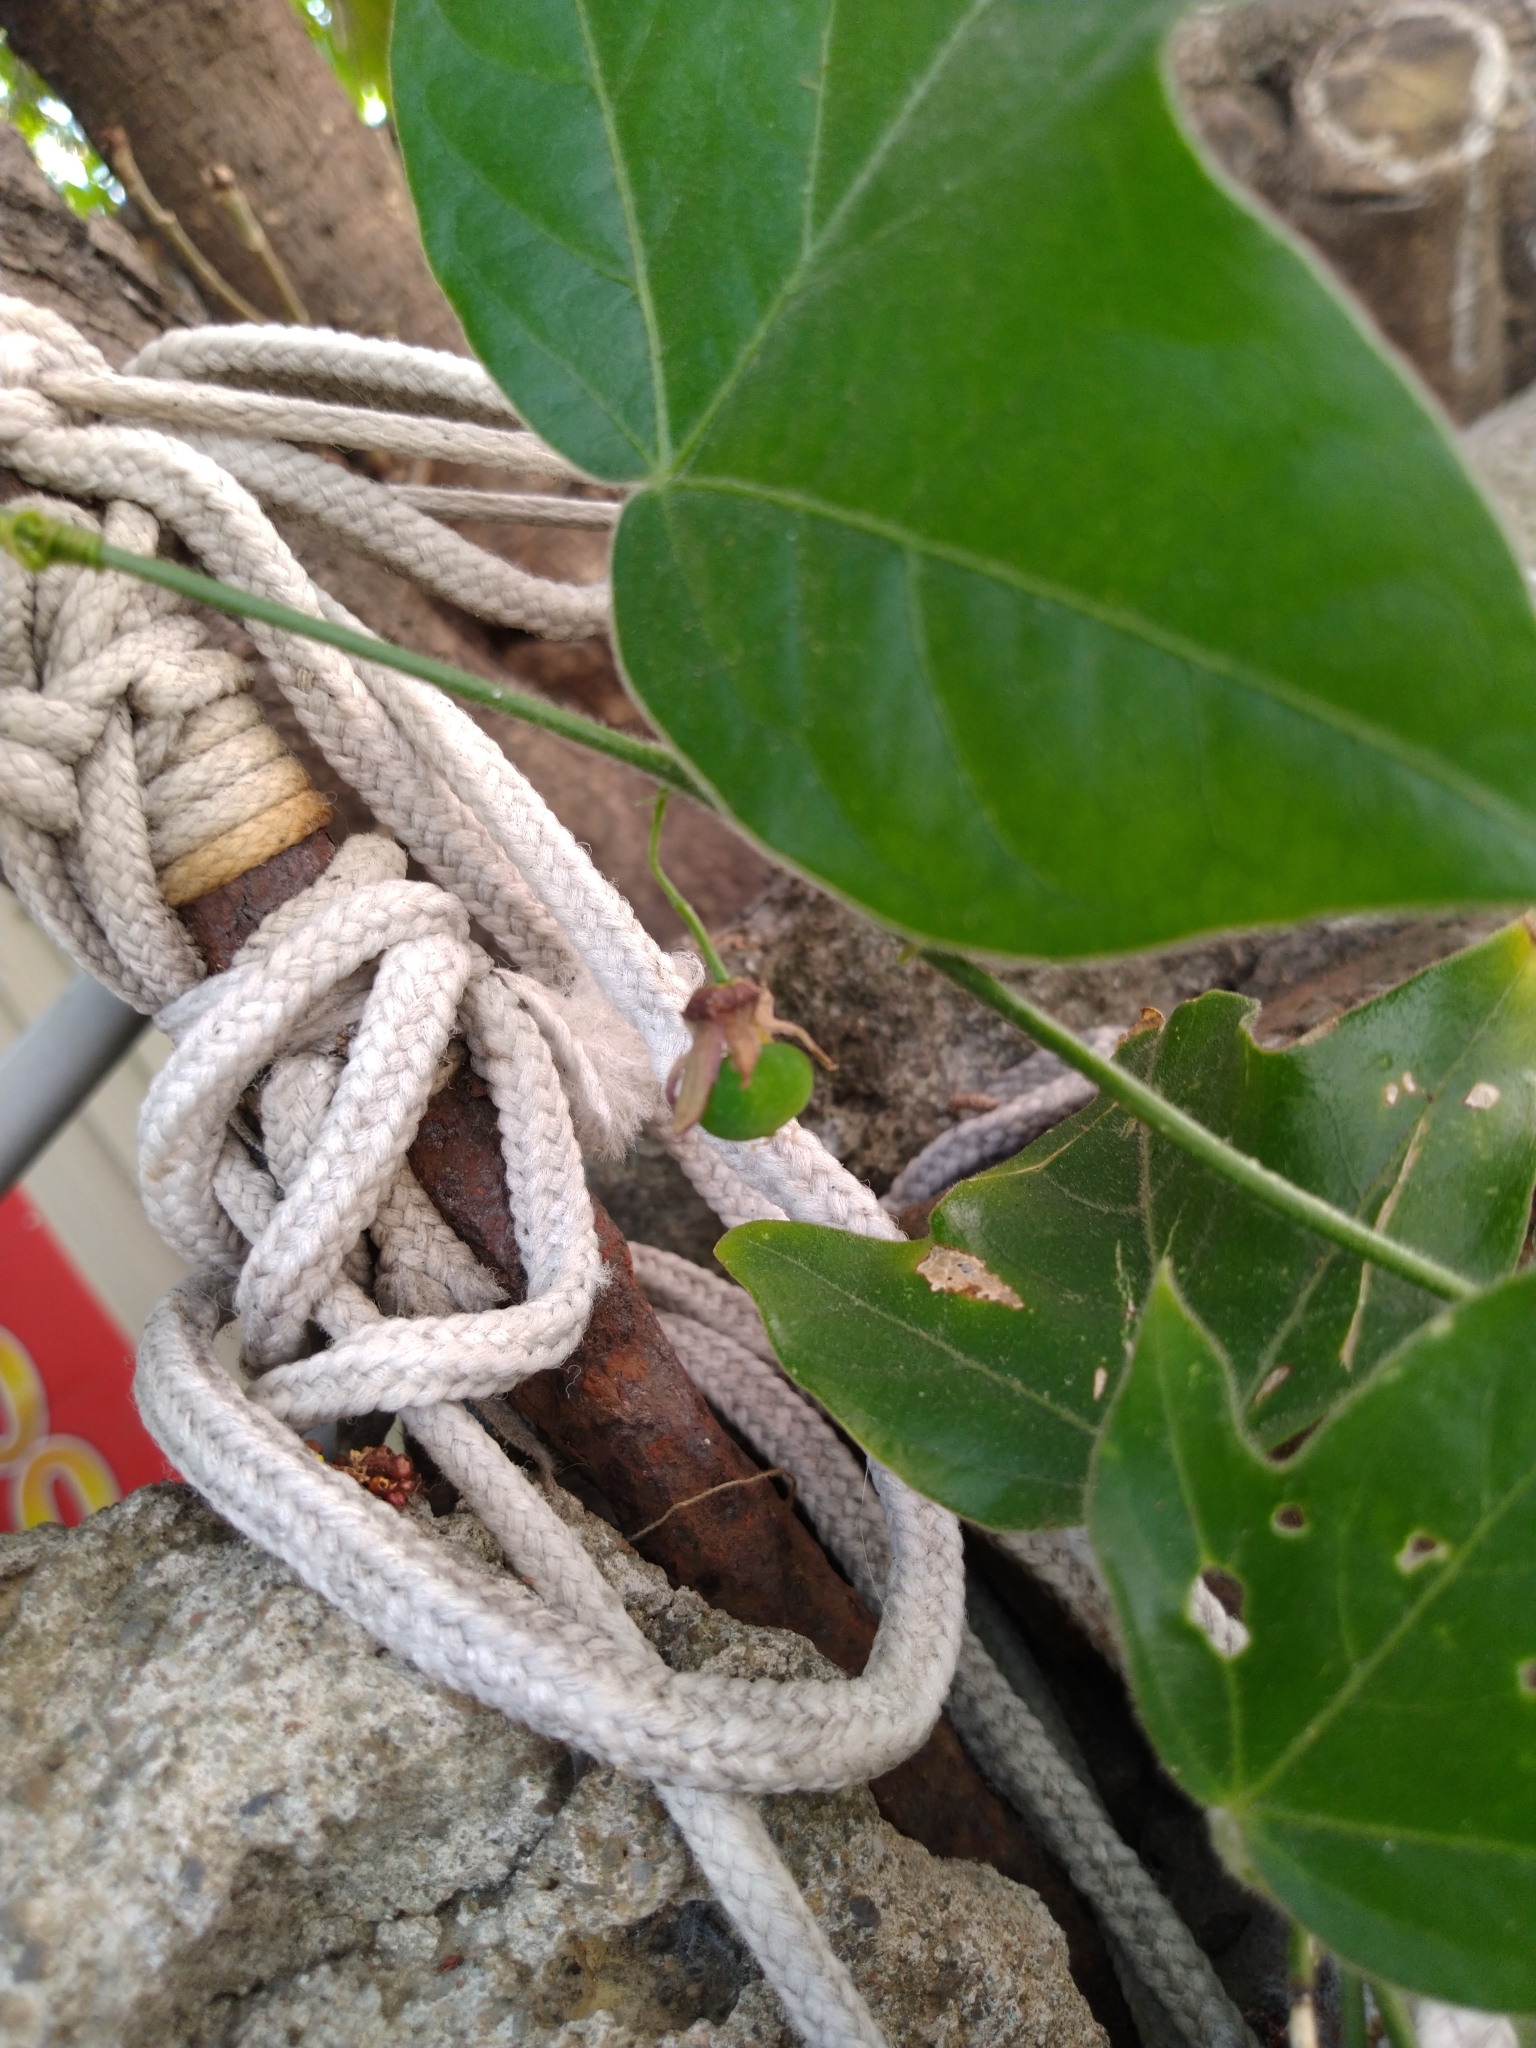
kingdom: Plantae
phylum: Tracheophyta
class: Magnoliopsida
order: Malpighiales
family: Passifloraceae
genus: Passiflora
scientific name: Passiflora suberosa
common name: Wild passionfruit
